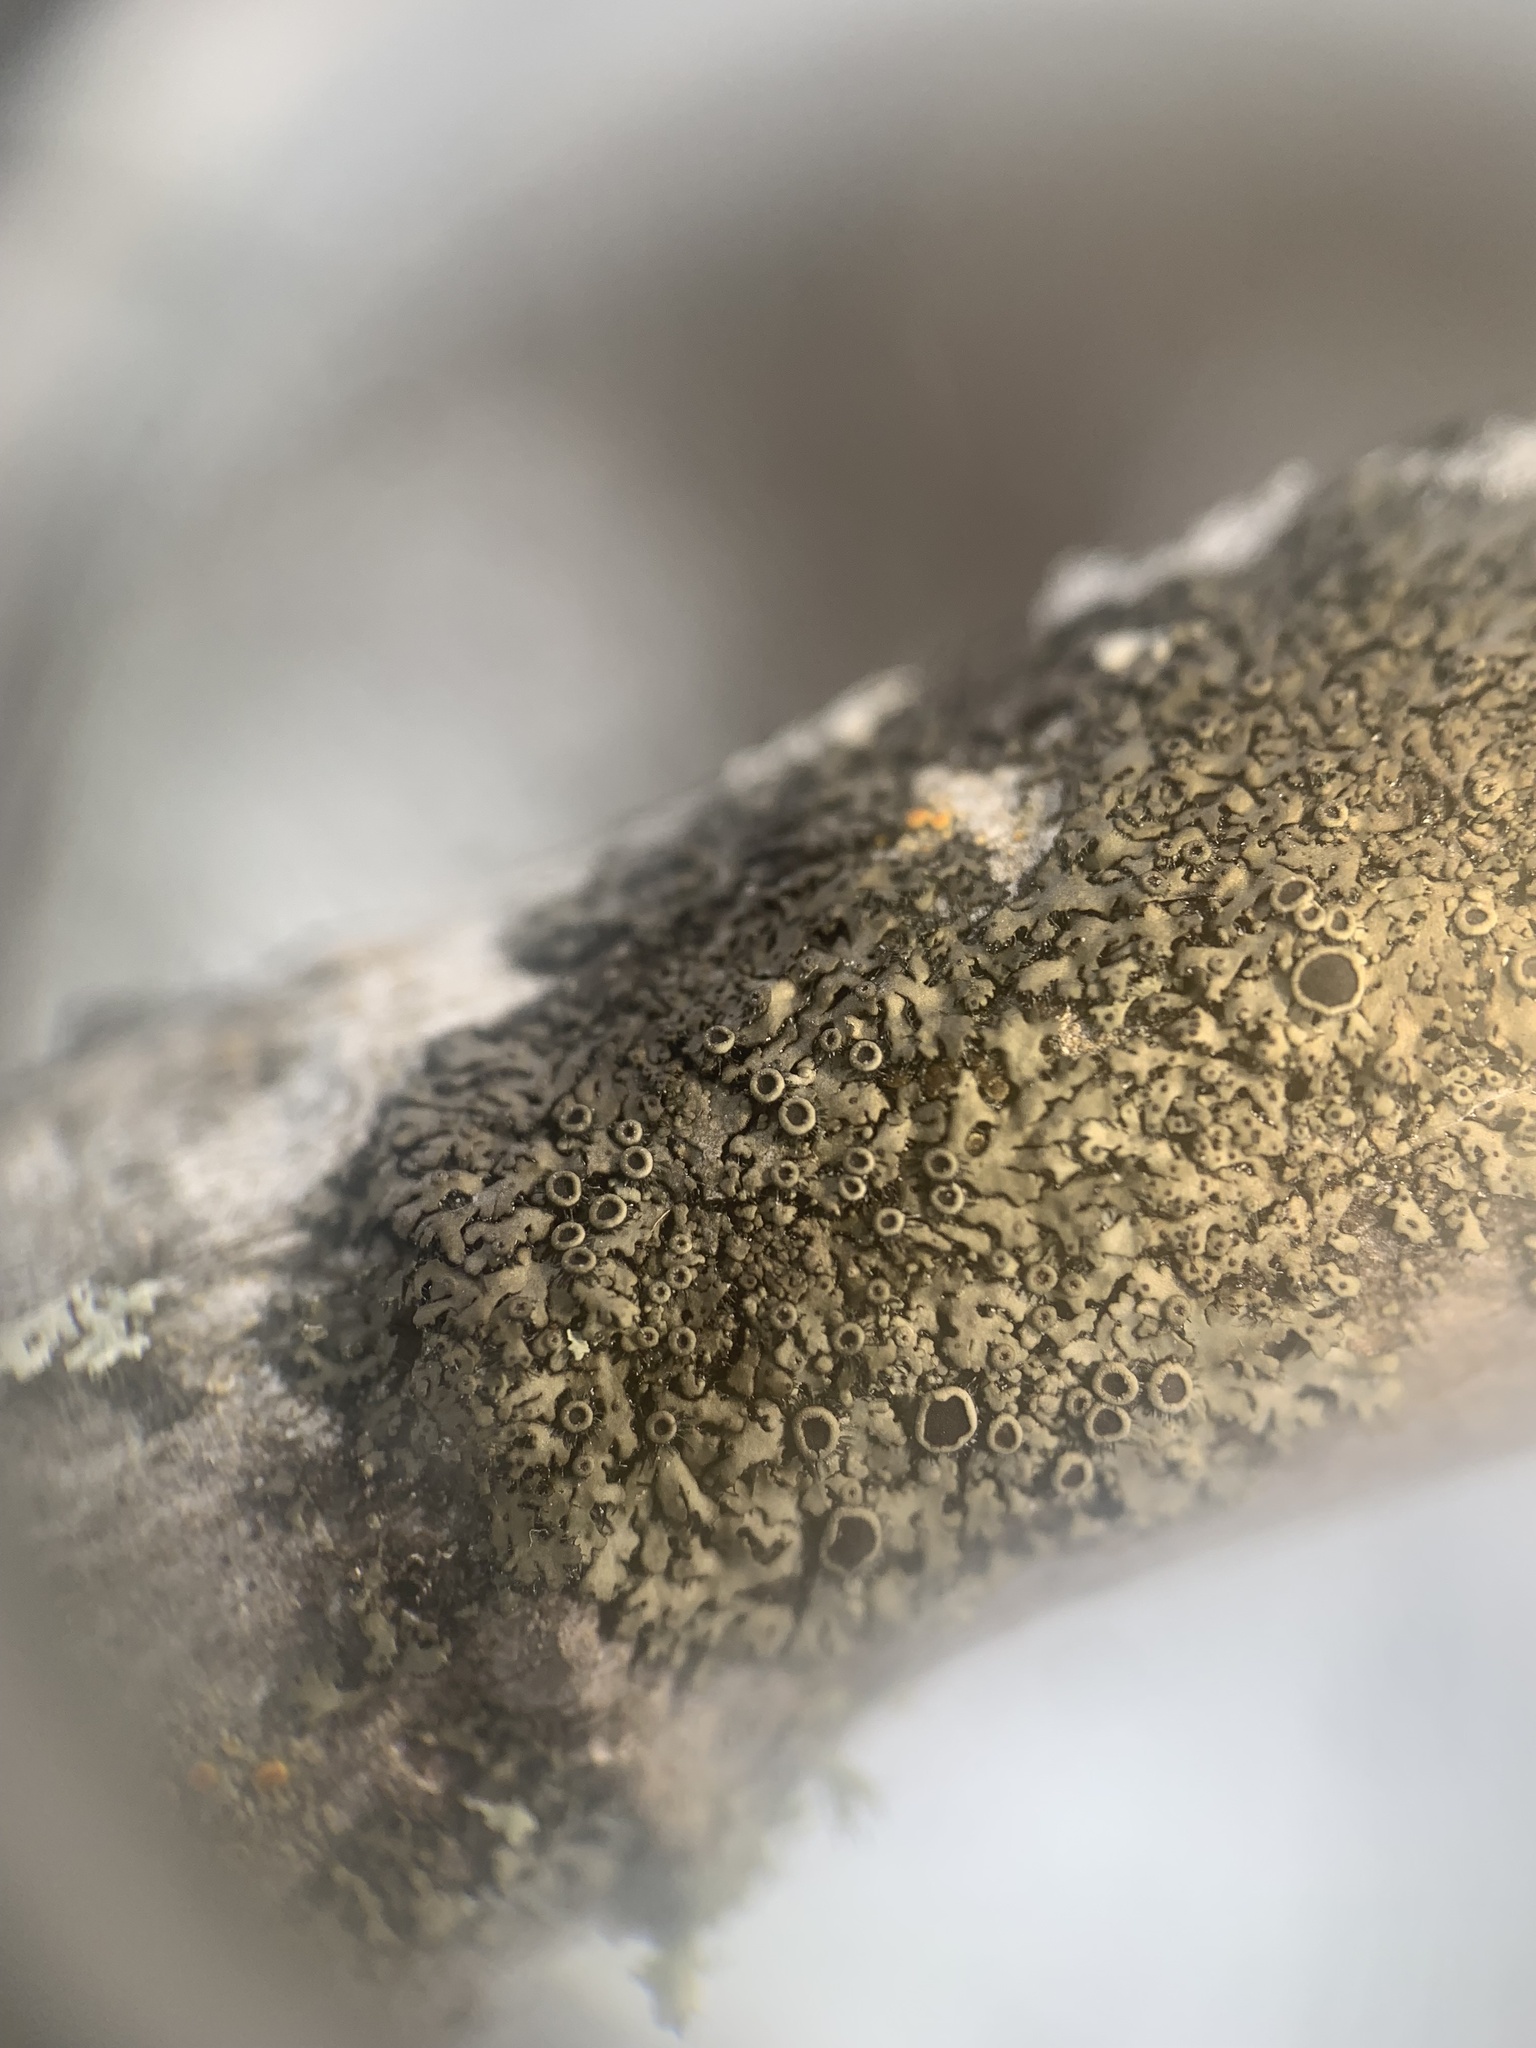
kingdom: Fungi
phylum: Ascomycota
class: Lecanoromycetes
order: Caliciales
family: Physciaceae
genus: Phaeophyscia
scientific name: Phaeophyscia ciliata
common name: Smooth shadow lichen
